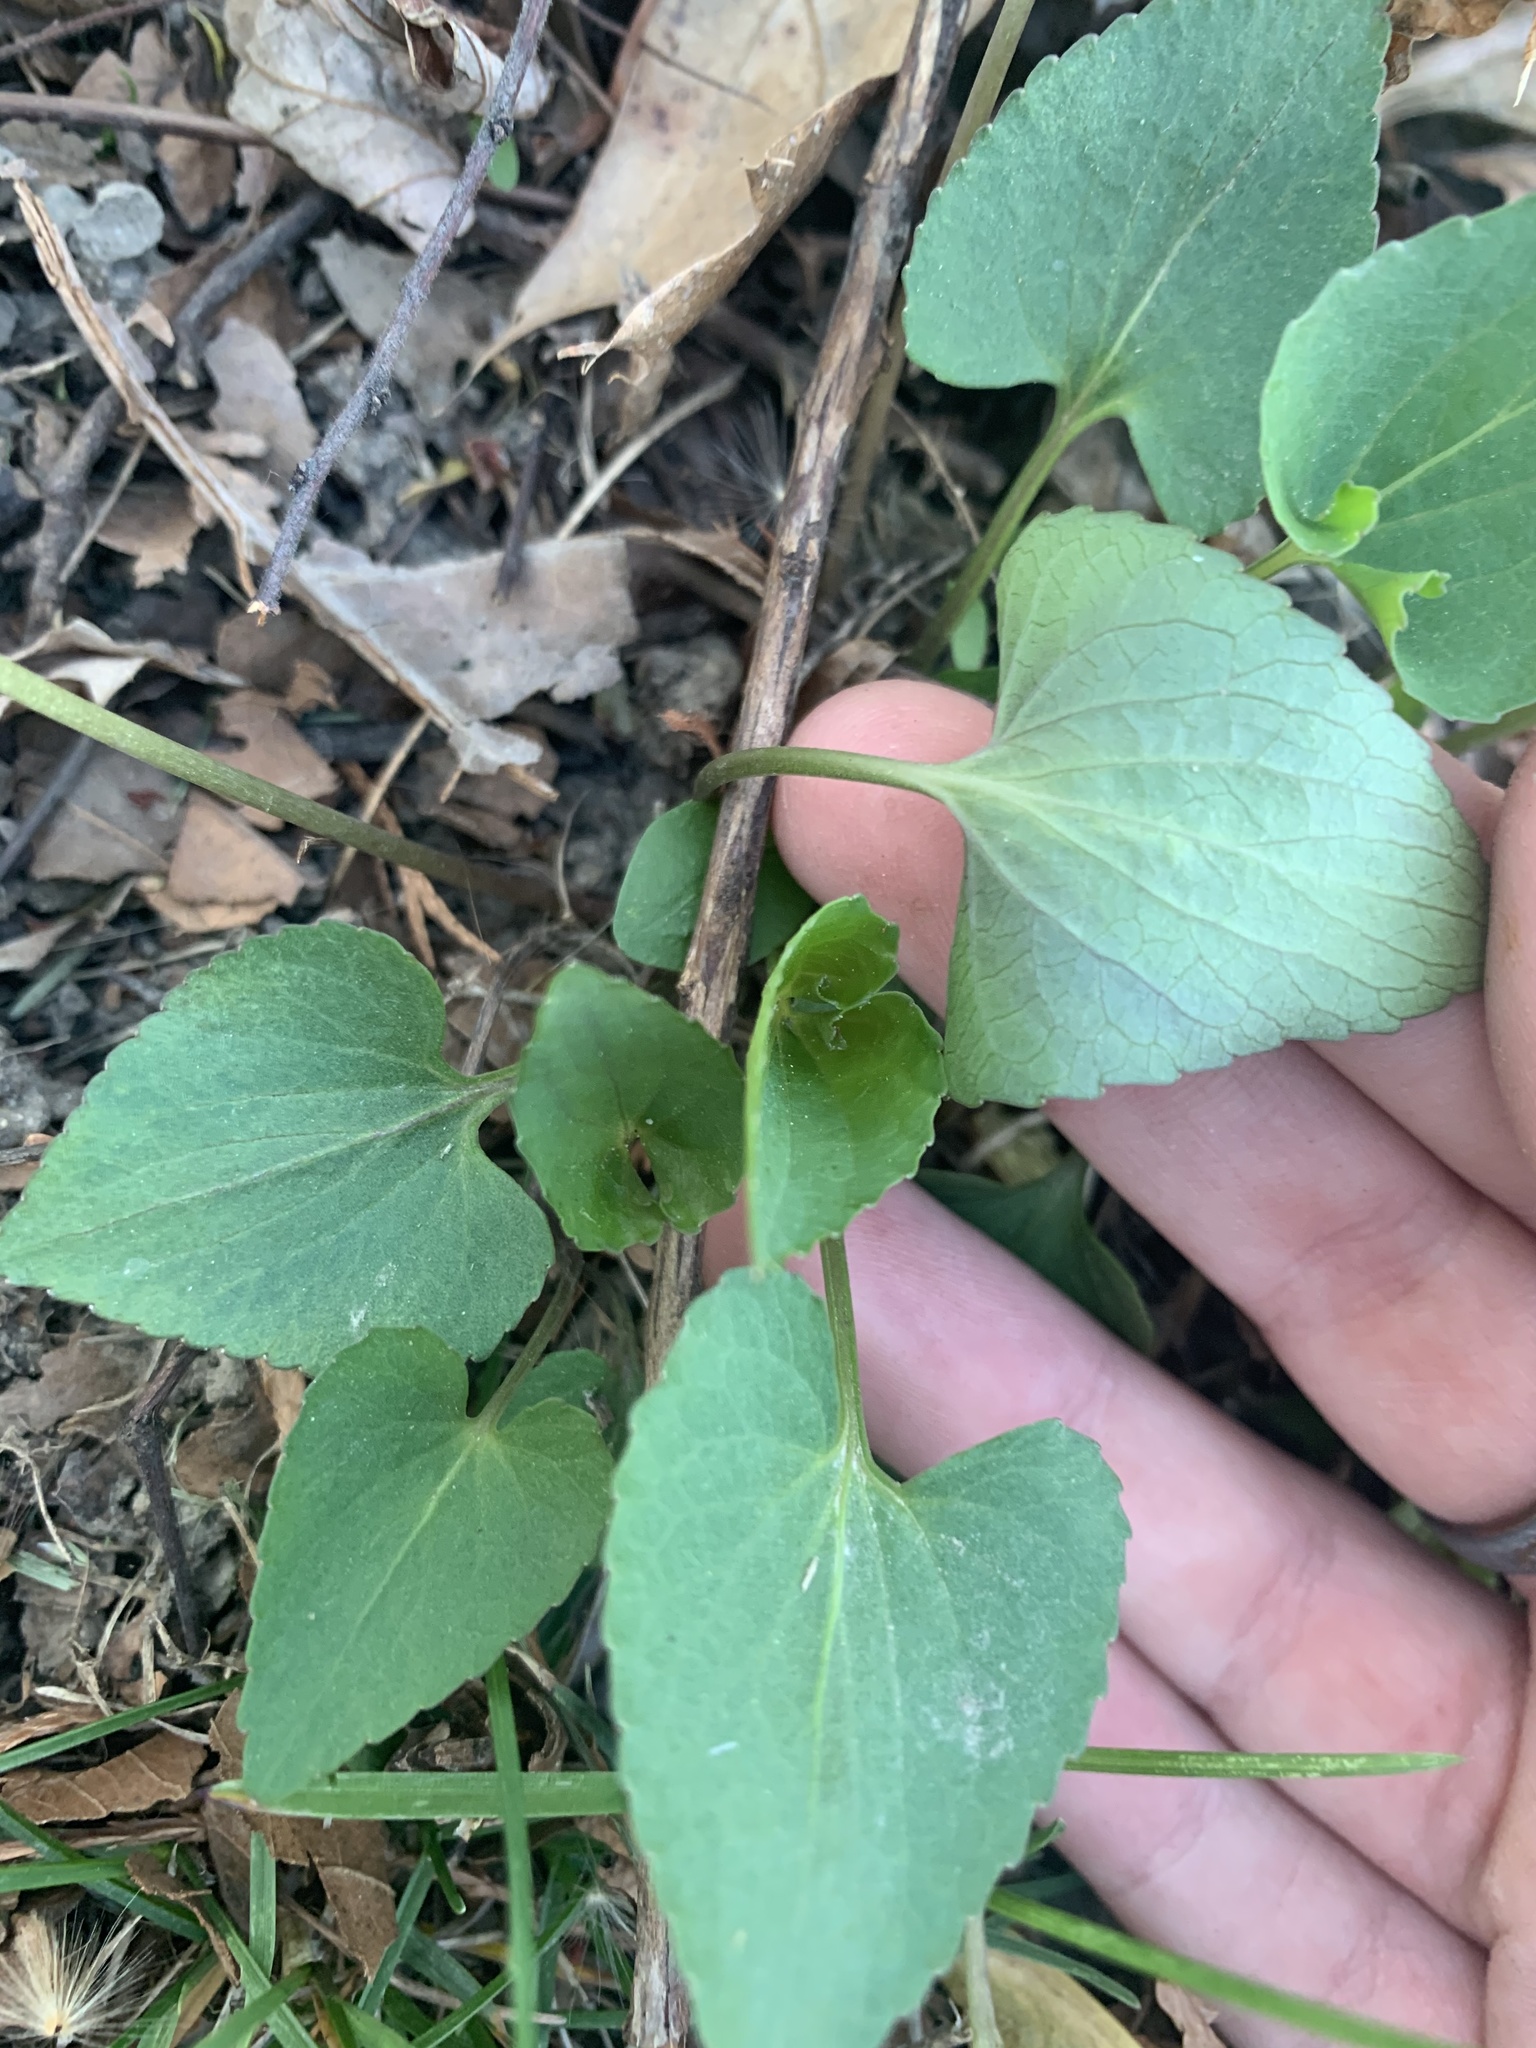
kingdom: Plantae
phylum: Tracheophyta
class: Magnoliopsida
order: Malpighiales
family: Violaceae
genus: Viola
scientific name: Viola sororia
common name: Dooryard violet
